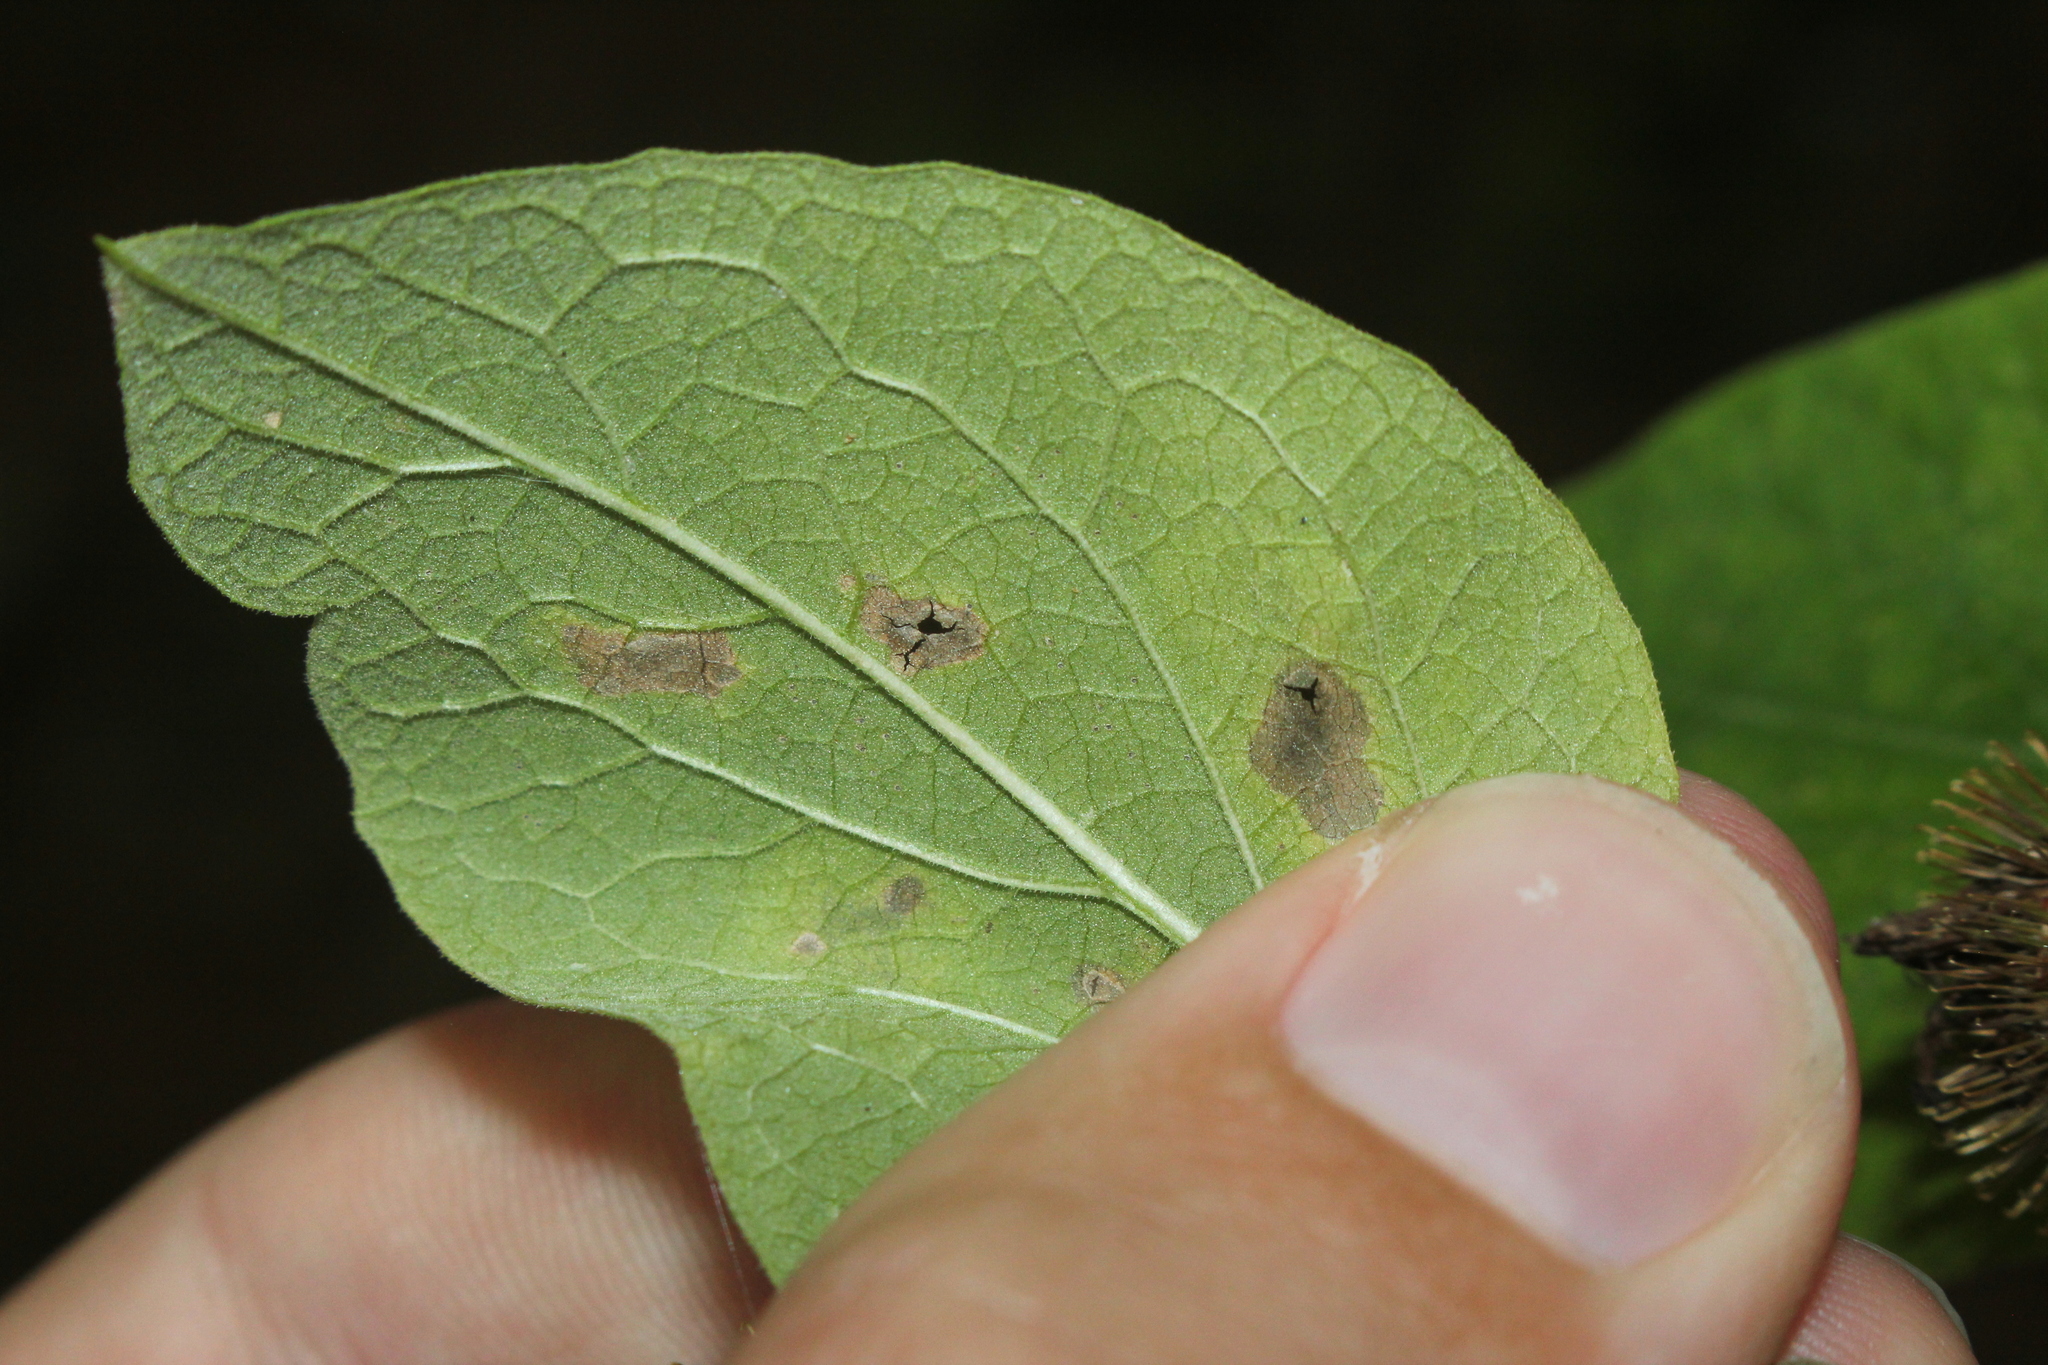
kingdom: Animalia
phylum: Arthropoda
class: Insecta
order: Diptera
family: Agromyzidae
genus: Calycomyza
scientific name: Calycomyza flavinotum
